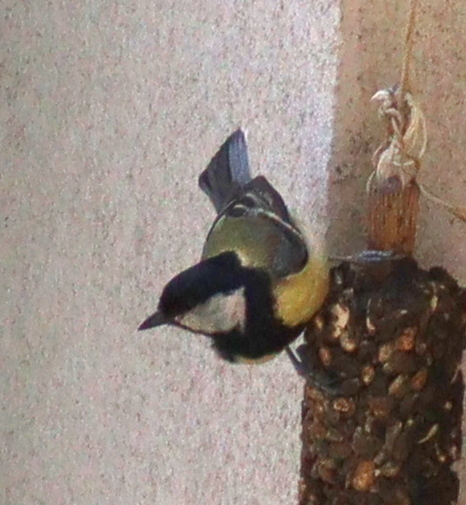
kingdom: Animalia
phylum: Chordata
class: Aves
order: Passeriformes
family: Paridae
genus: Parus
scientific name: Parus major
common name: Great tit
